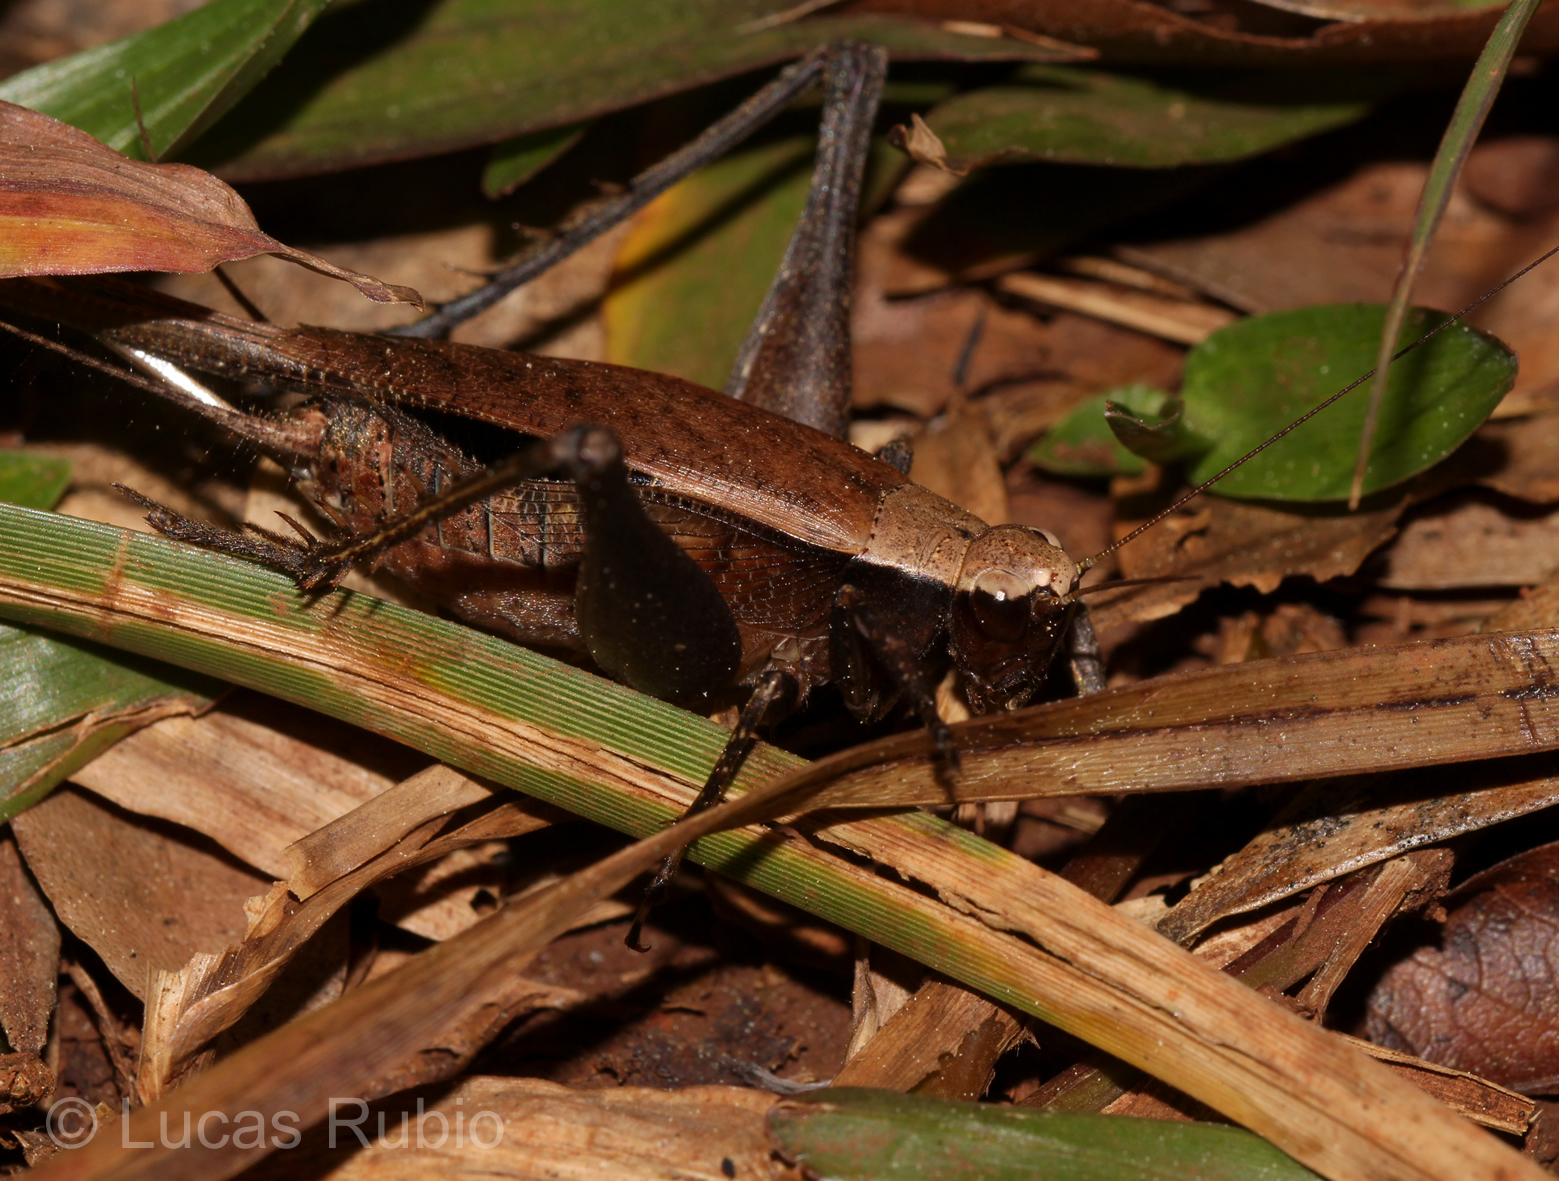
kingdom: Animalia
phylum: Arthropoda
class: Insecta
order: Orthoptera
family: Gryllidae
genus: Eneoptera
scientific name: Eneoptera surinamensis
